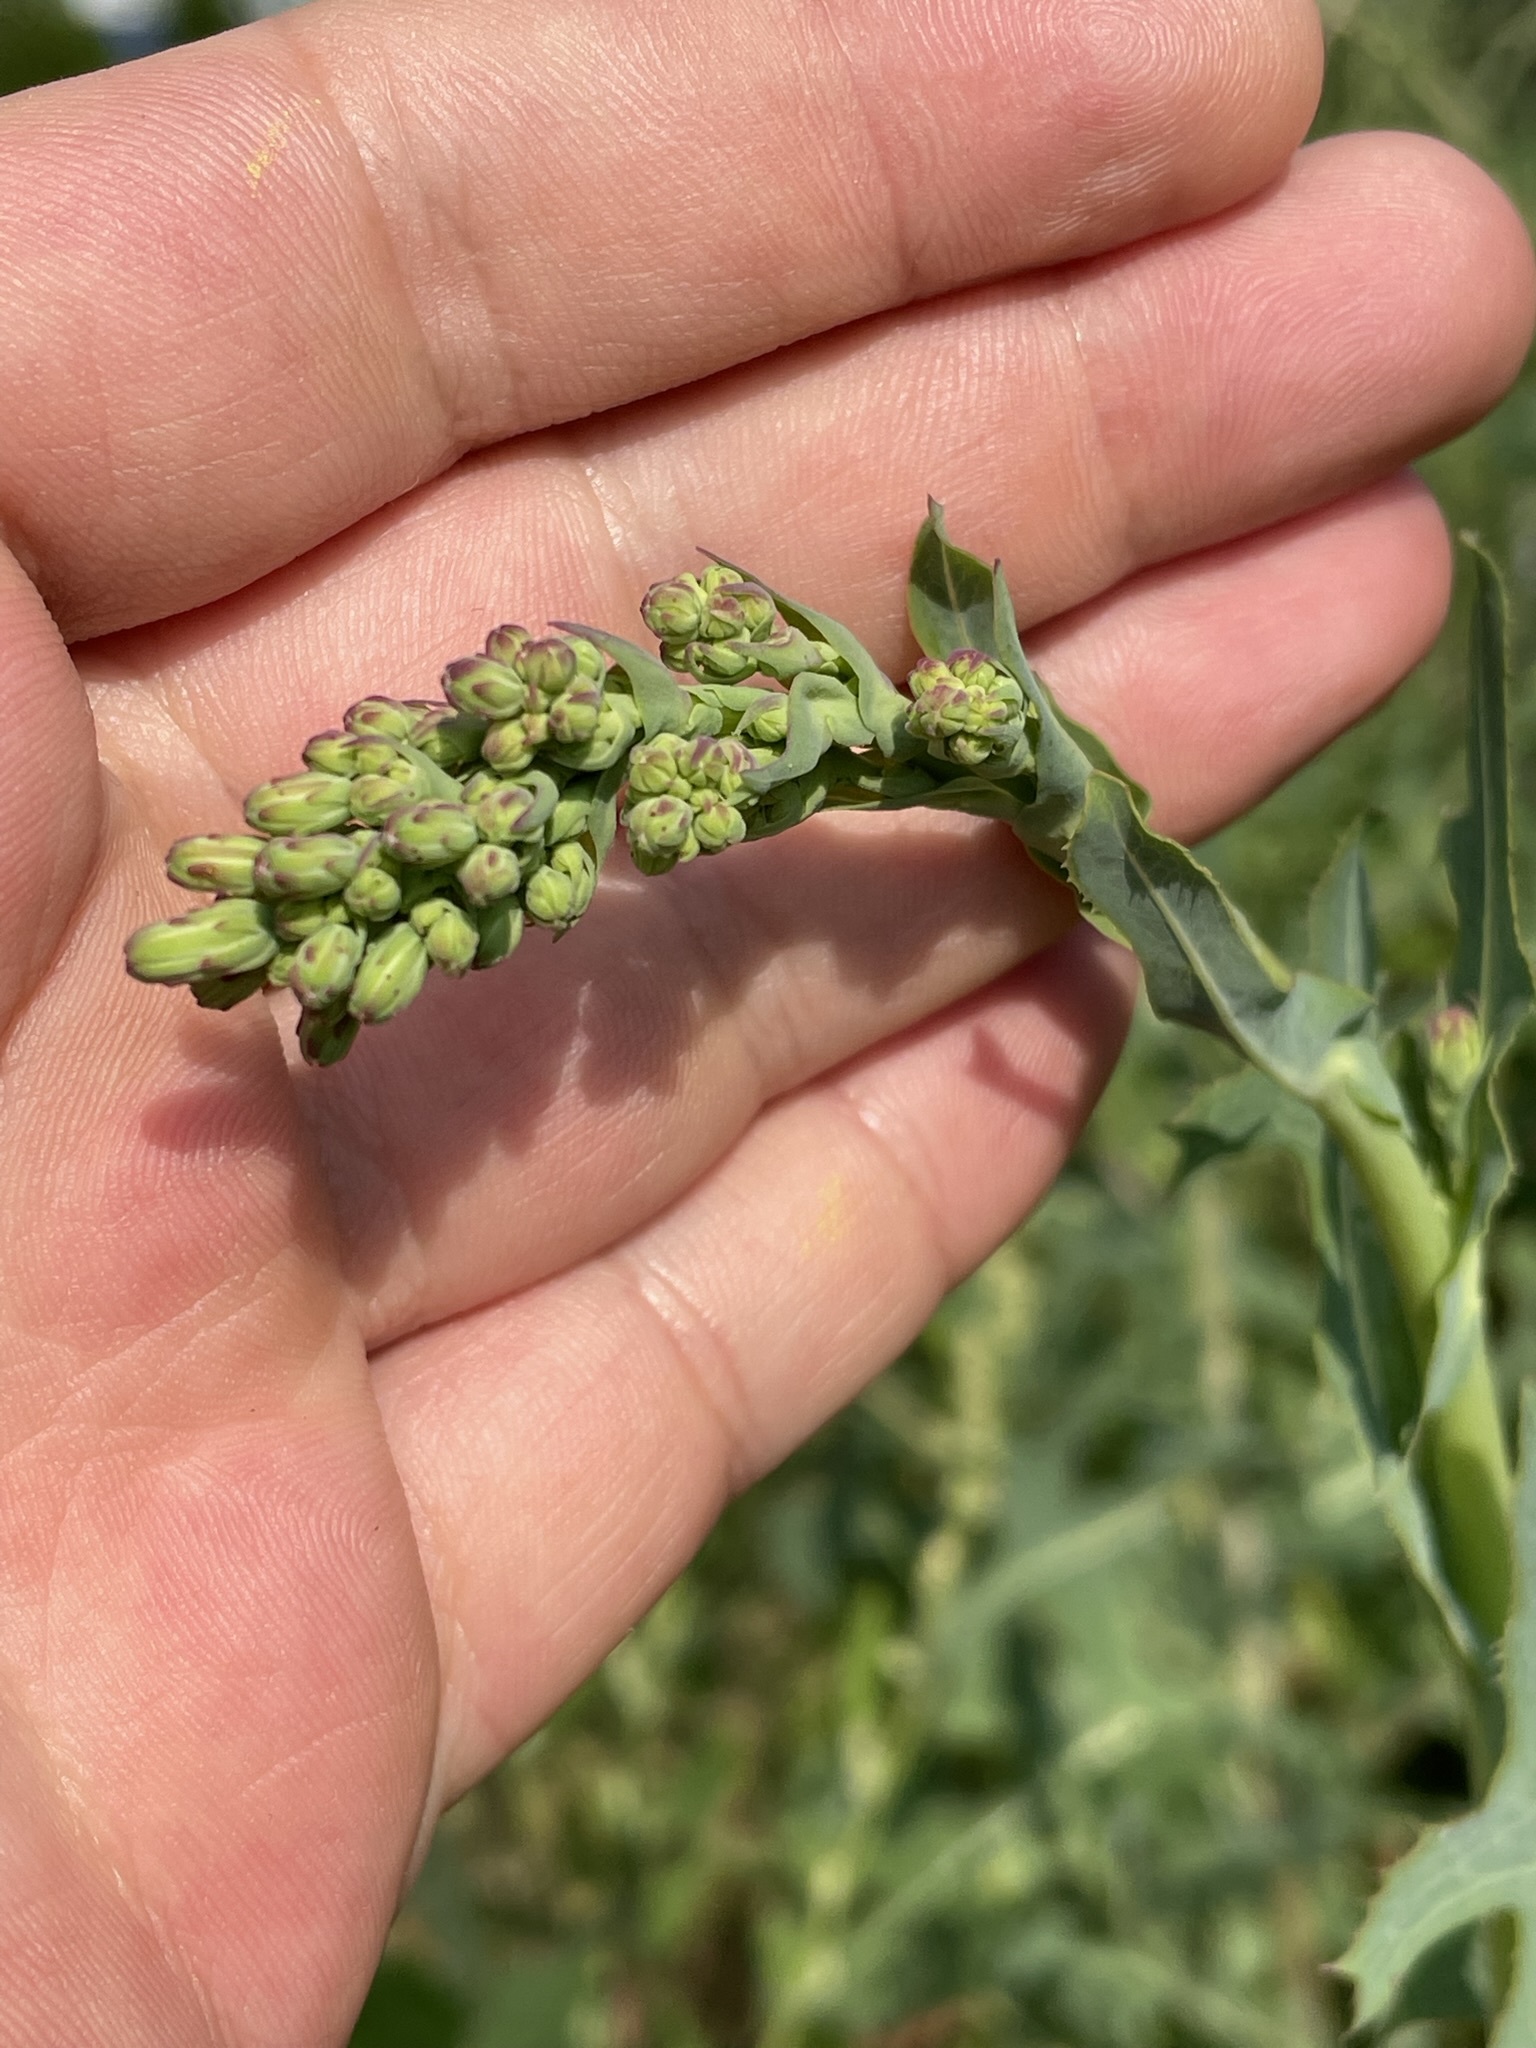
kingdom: Plantae
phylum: Tracheophyta
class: Magnoliopsida
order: Asterales
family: Asteraceae
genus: Lactuca
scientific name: Lactuca serriola
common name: Prickly lettuce
